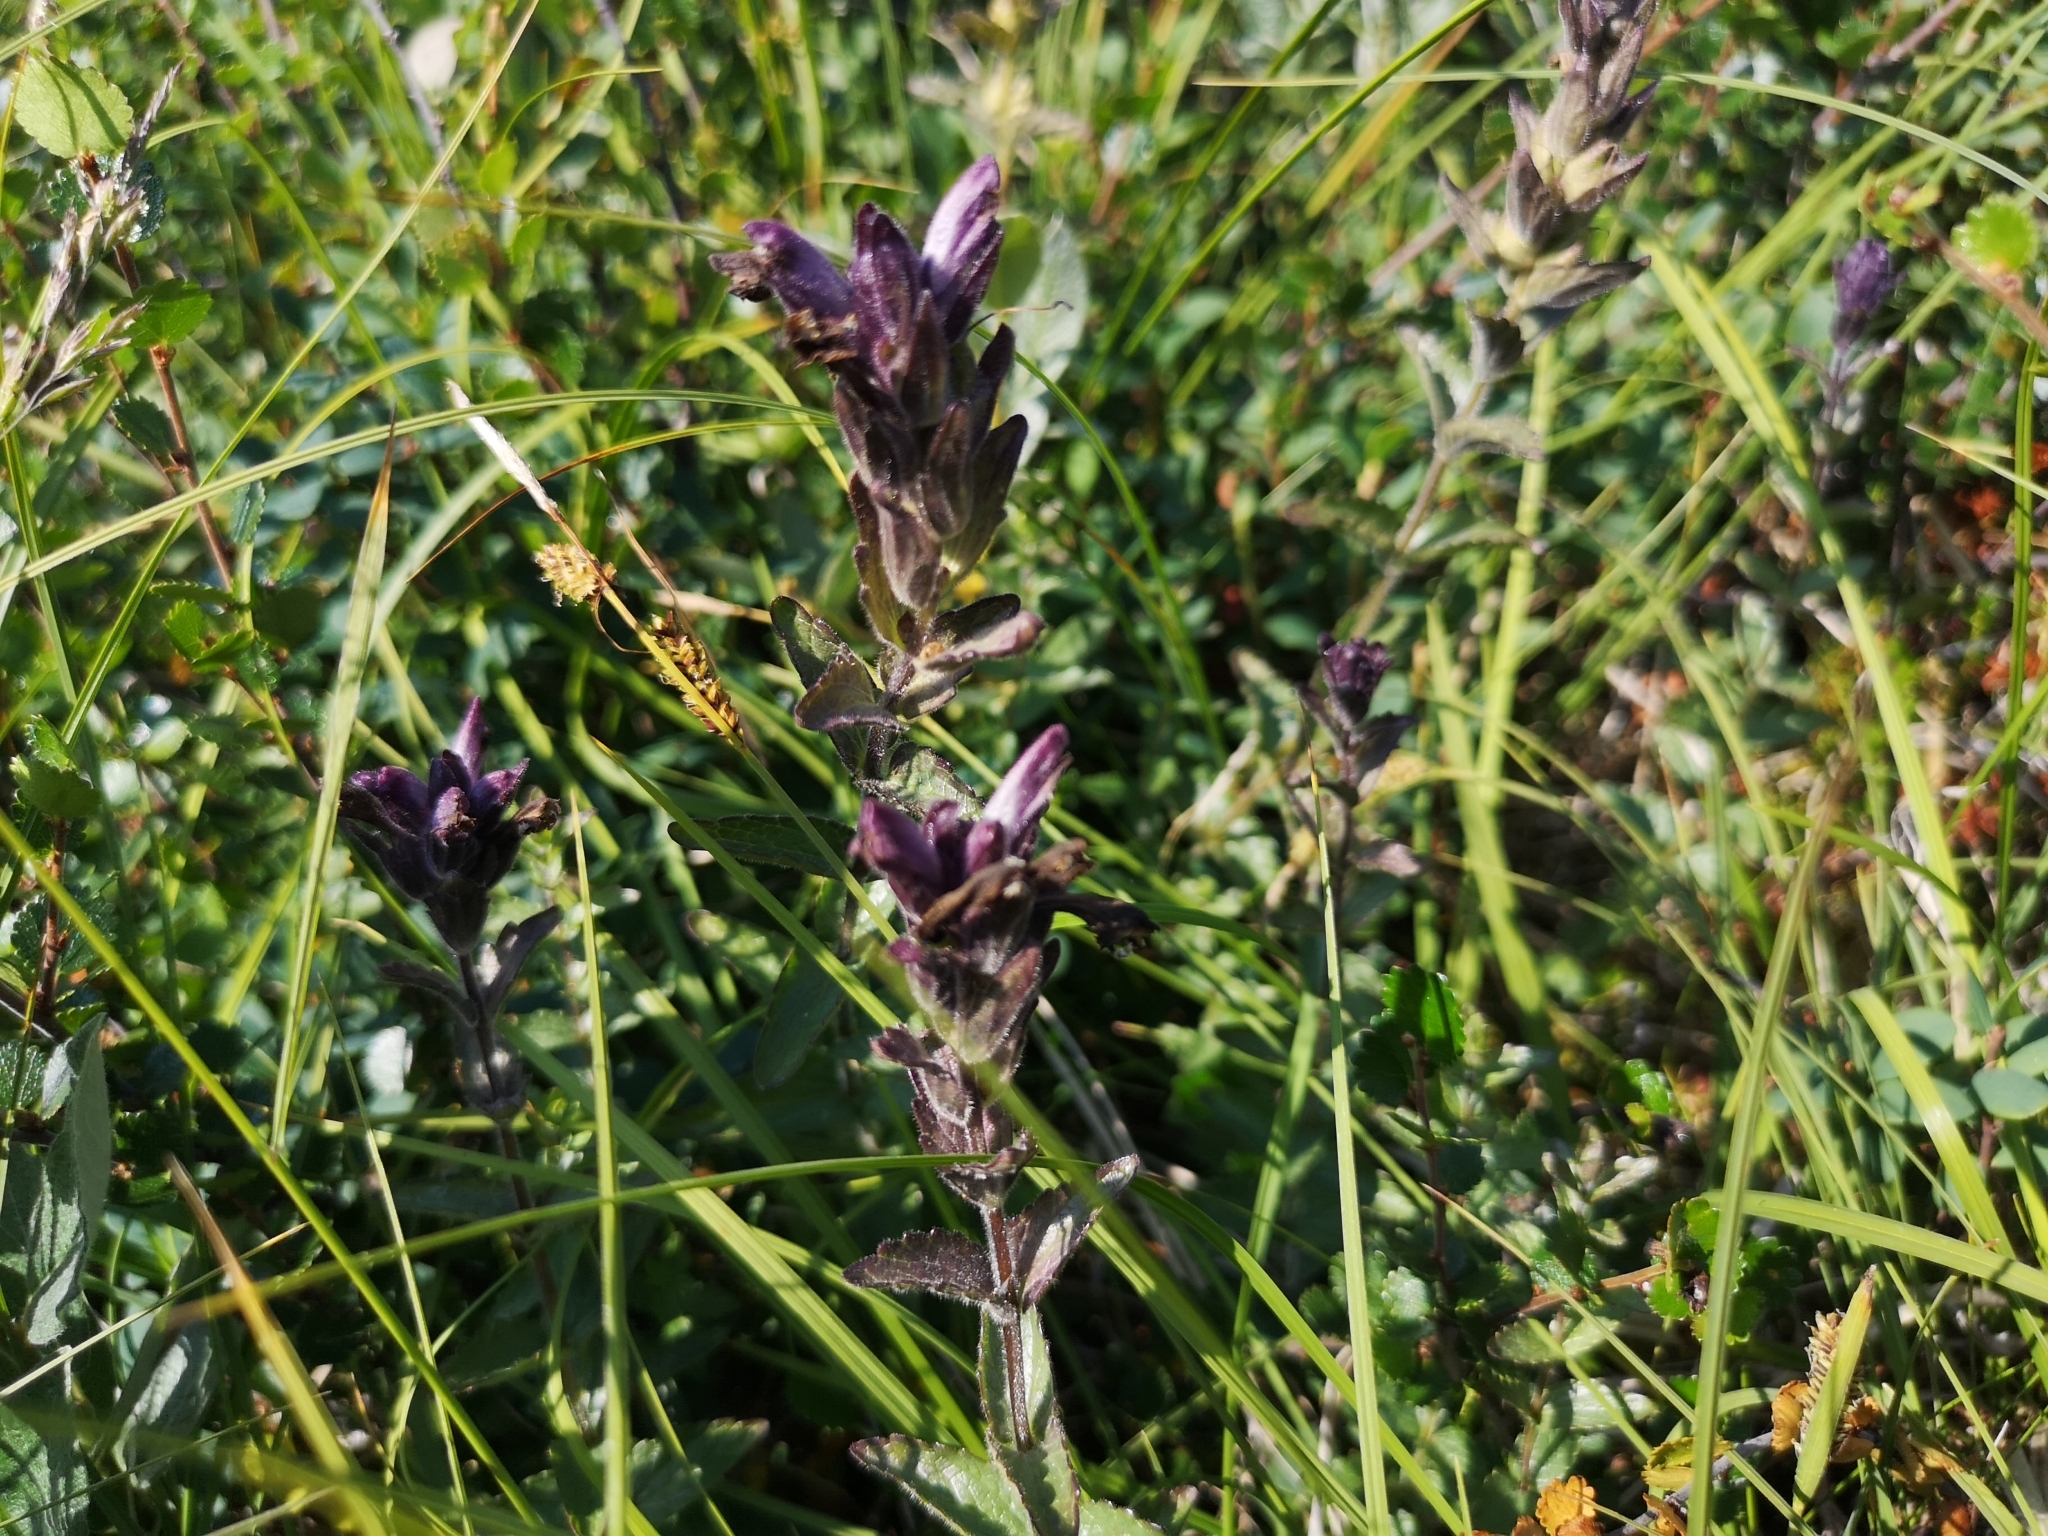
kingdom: Plantae
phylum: Tracheophyta
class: Magnoliopsida
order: Lamiales
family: Orobanchaceae
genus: Bartsia
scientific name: Bartsia alpina
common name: Alpine bartsia
